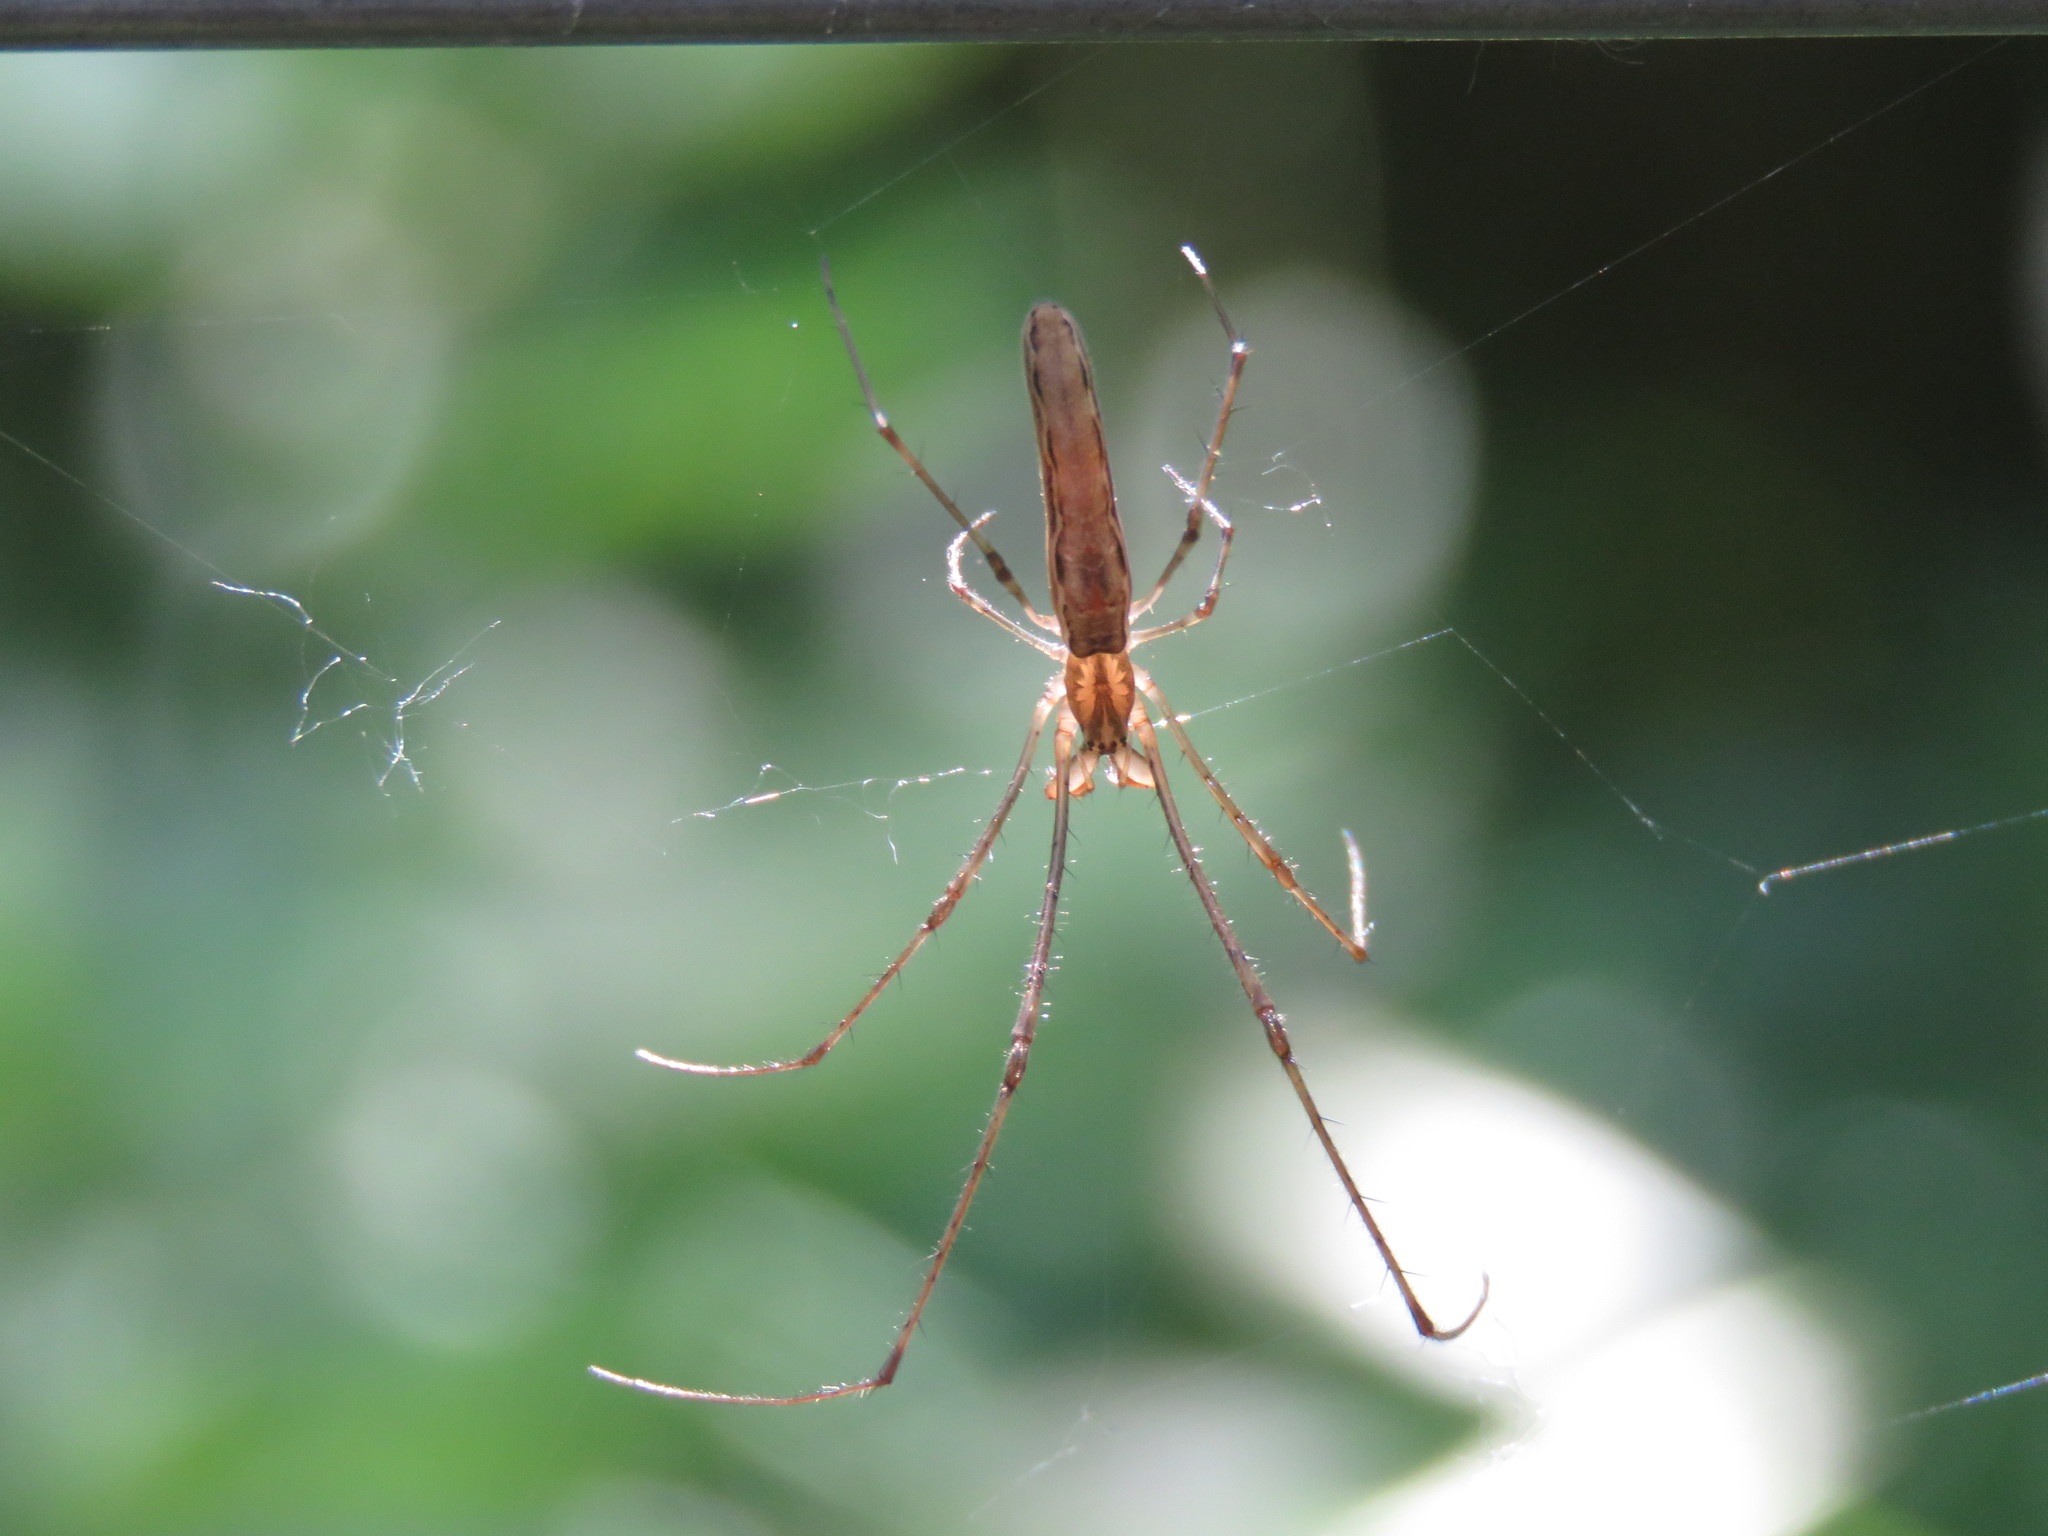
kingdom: Animalia
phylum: Arthropoda
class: Arachnida
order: Araneae
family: Tetragnathidae
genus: Tetragnatha
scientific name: Tetragnatha
